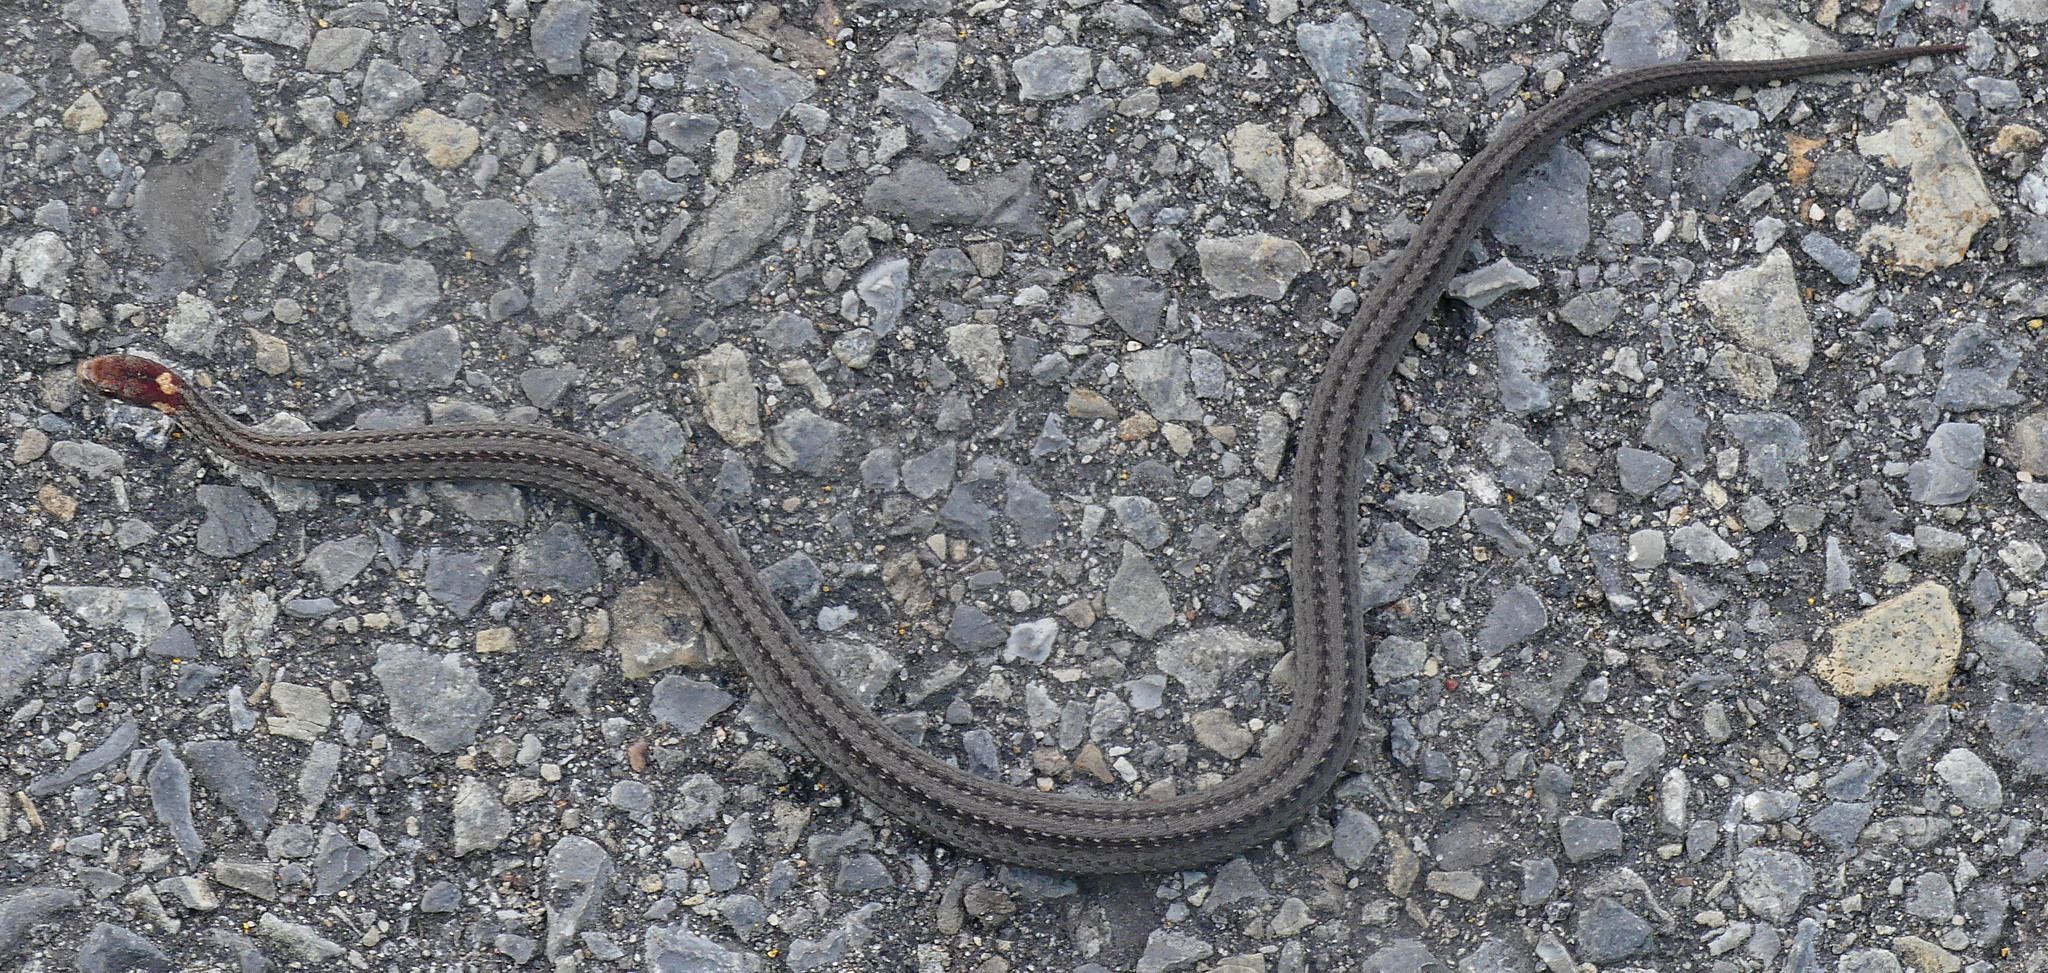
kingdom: Animalia
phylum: Chordata
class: Squamata
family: Colubridae
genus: Storeria
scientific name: Storeria occipitomaculata
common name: Redbelly snake
